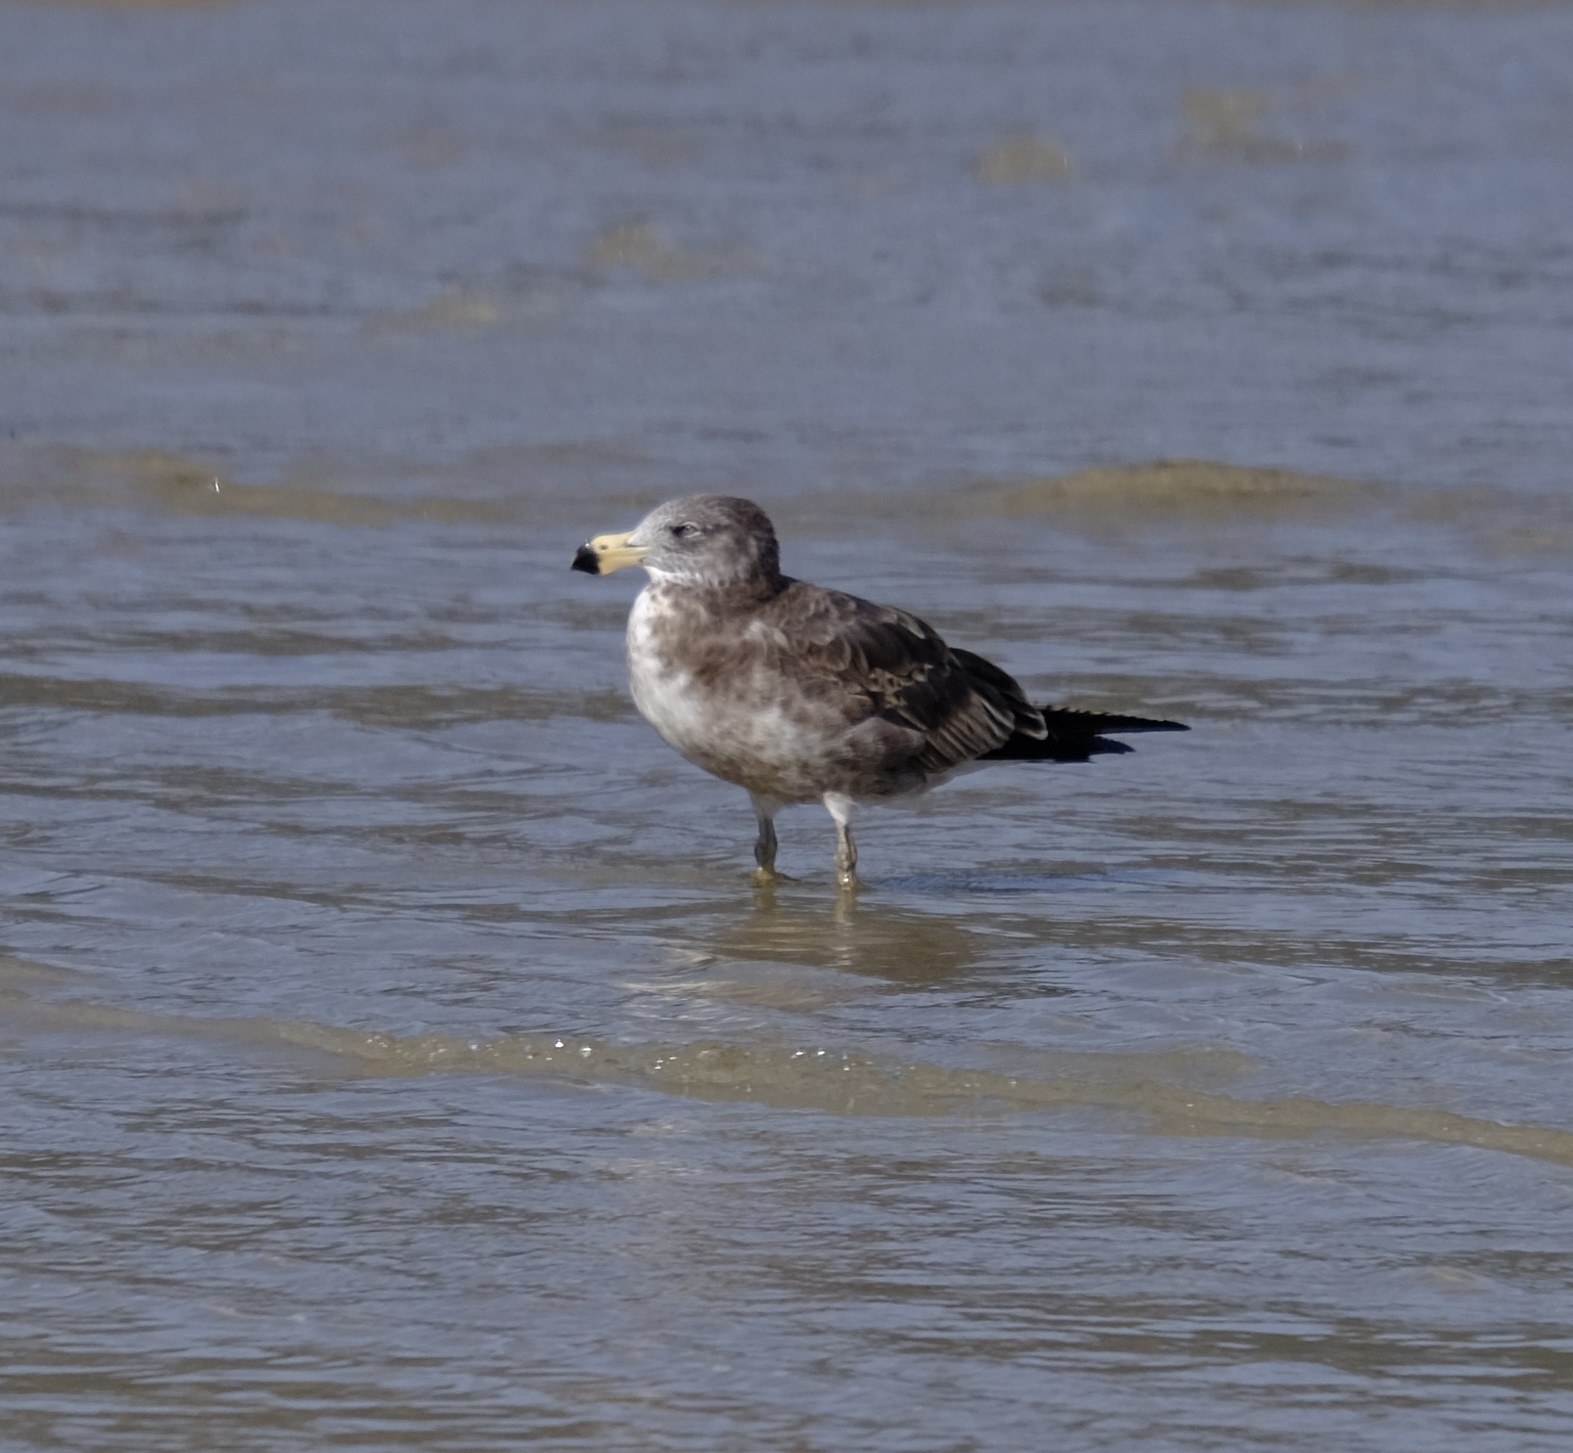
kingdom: Animalia
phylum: Chordata
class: Aves
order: Charadriiformes
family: Laridae
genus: Larus
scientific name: Larus pacificus
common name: Pacific gull
